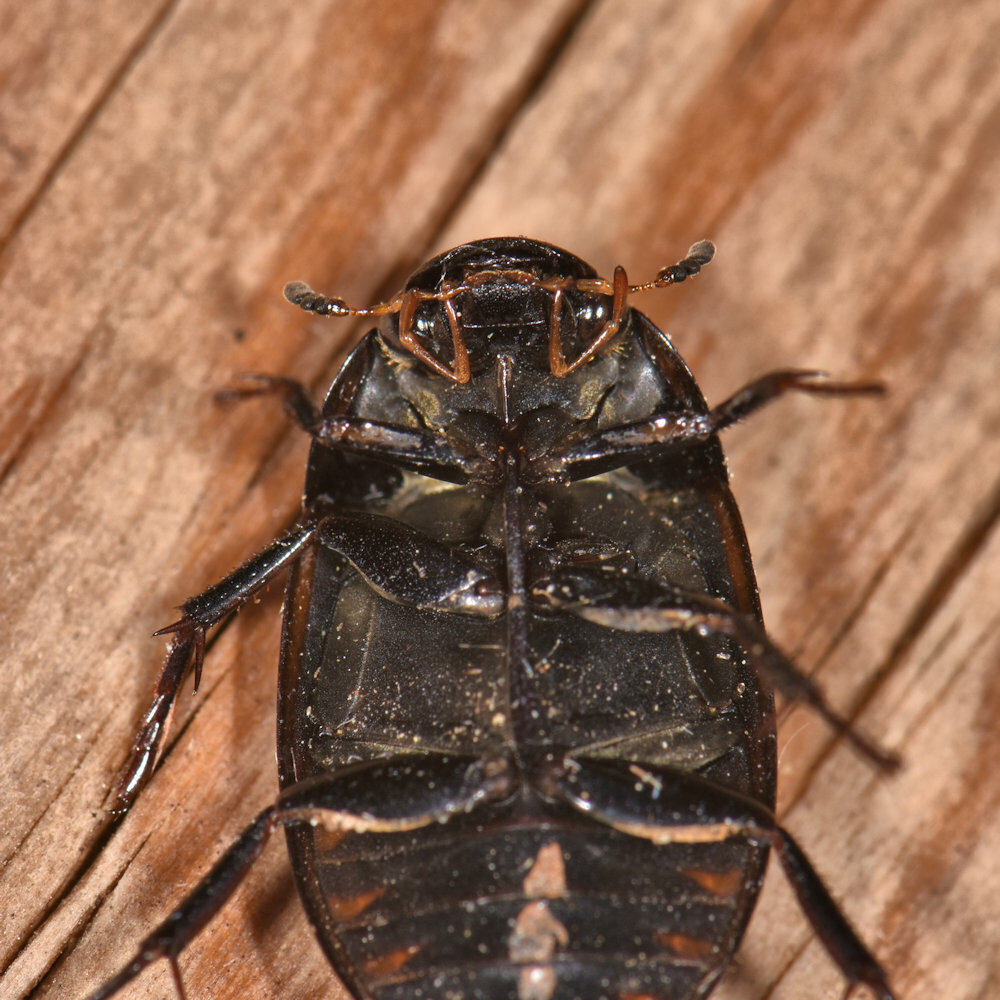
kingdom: Animalia
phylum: Arthropoda
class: Insecta
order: Coleoptera
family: Hydrophilidae
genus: Hydrochara
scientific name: Hydrochara
